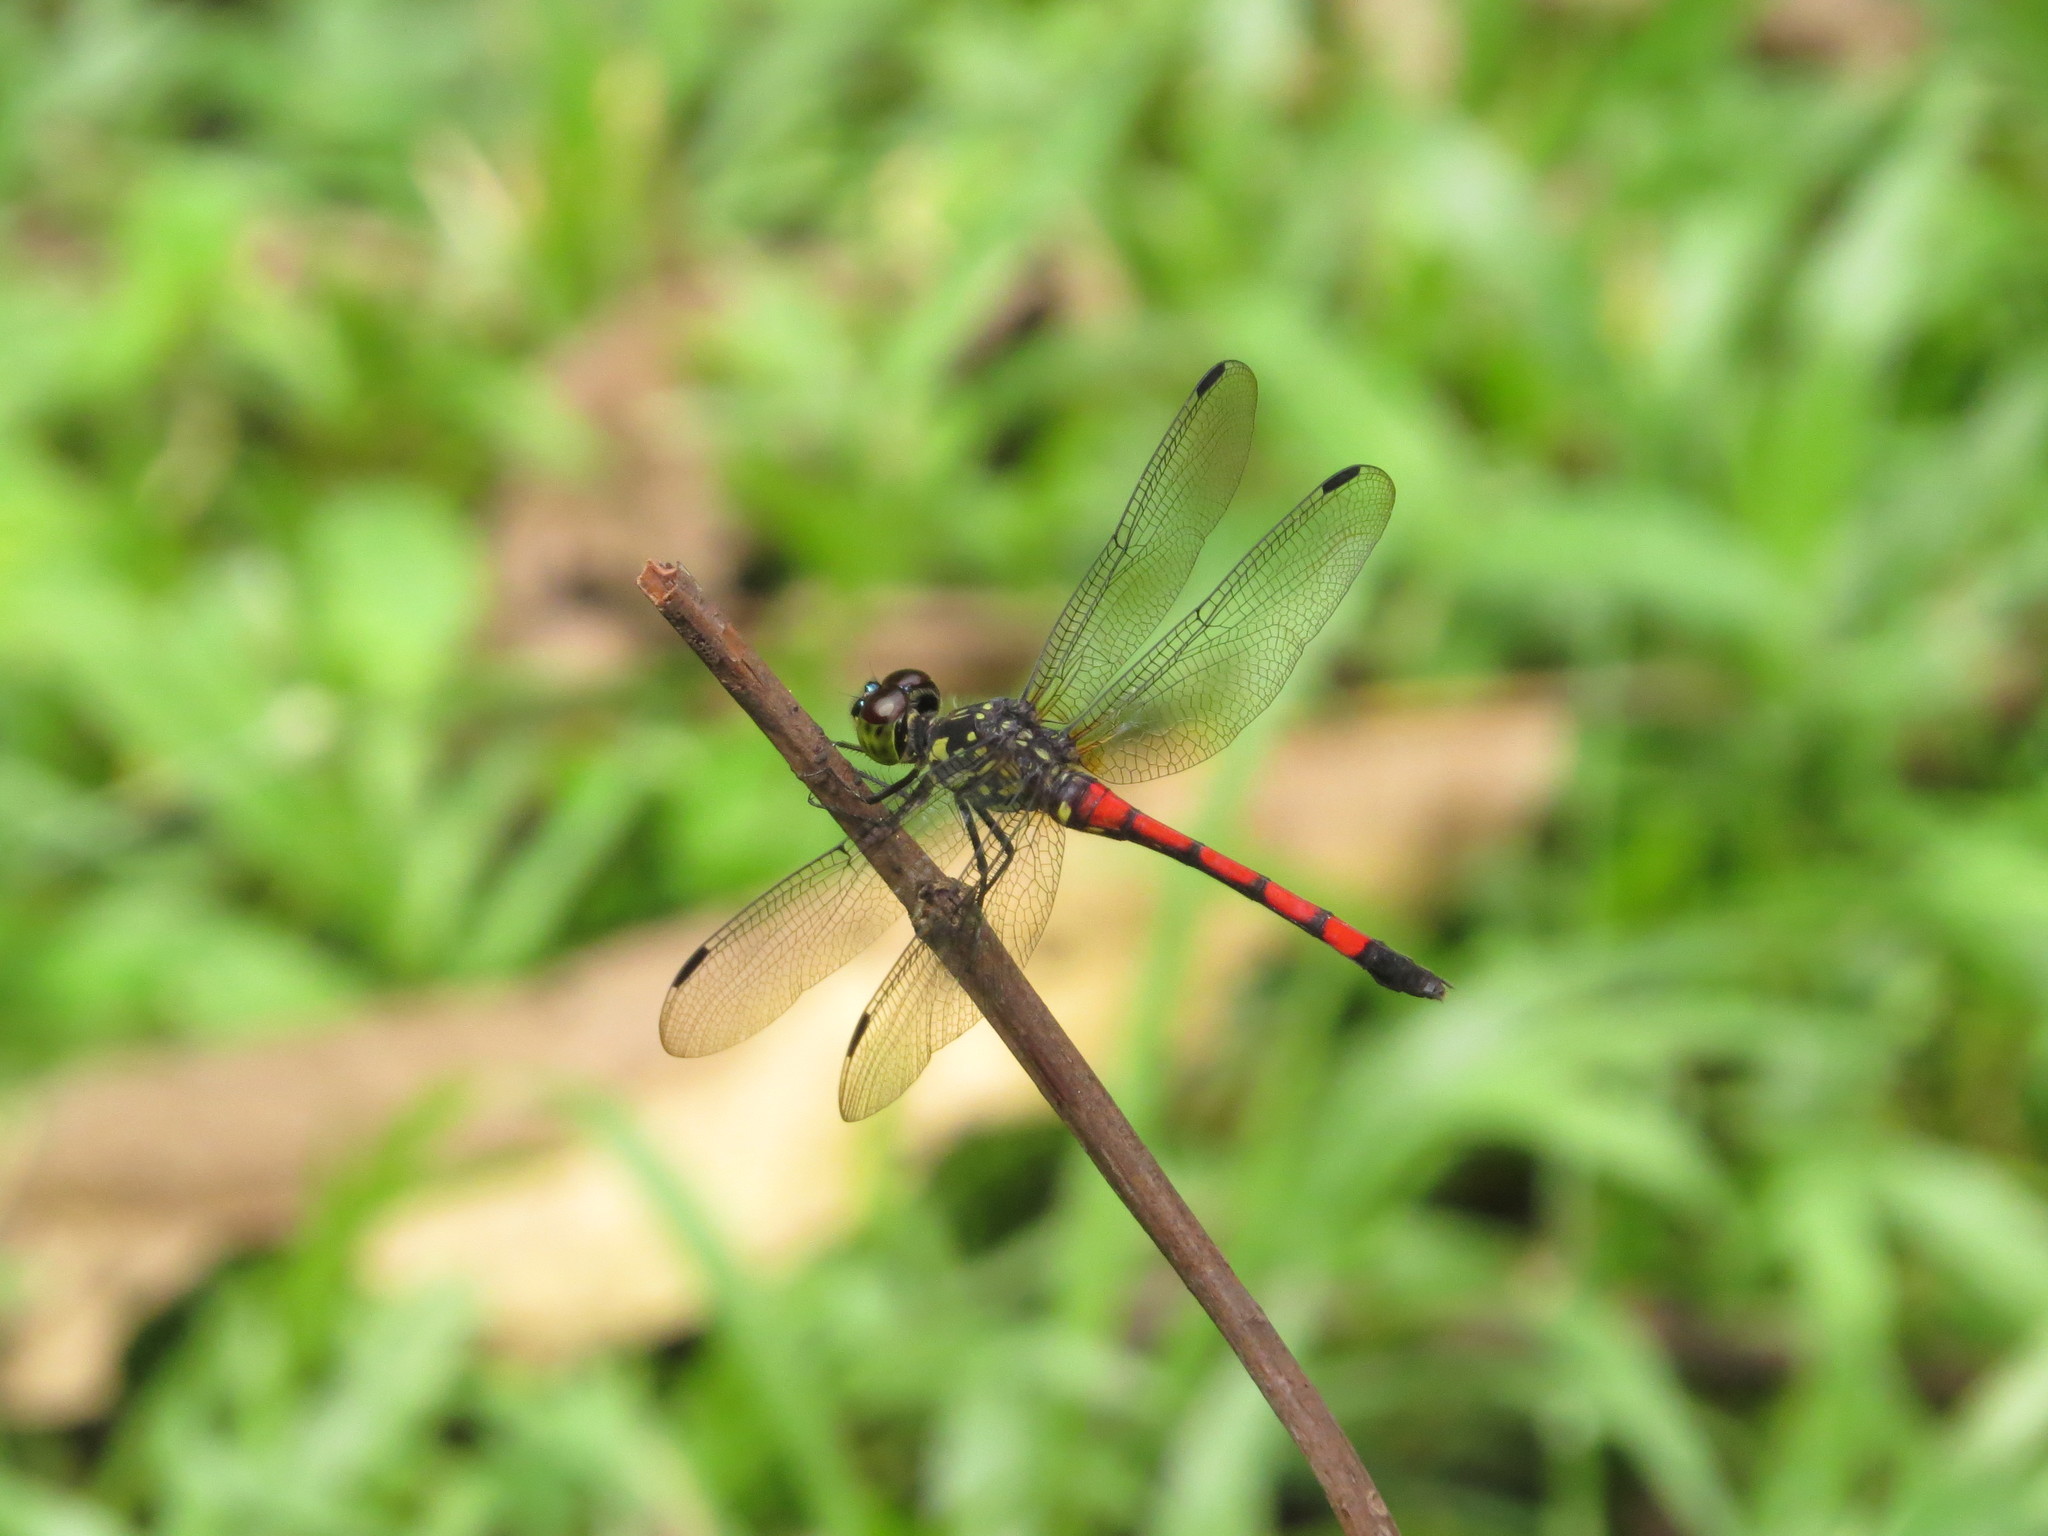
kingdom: Animalia
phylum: Arthropoda
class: Insecta
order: Odonata
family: Libellulidae
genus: Agrionoptera
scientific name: Agrionoptera insignis
